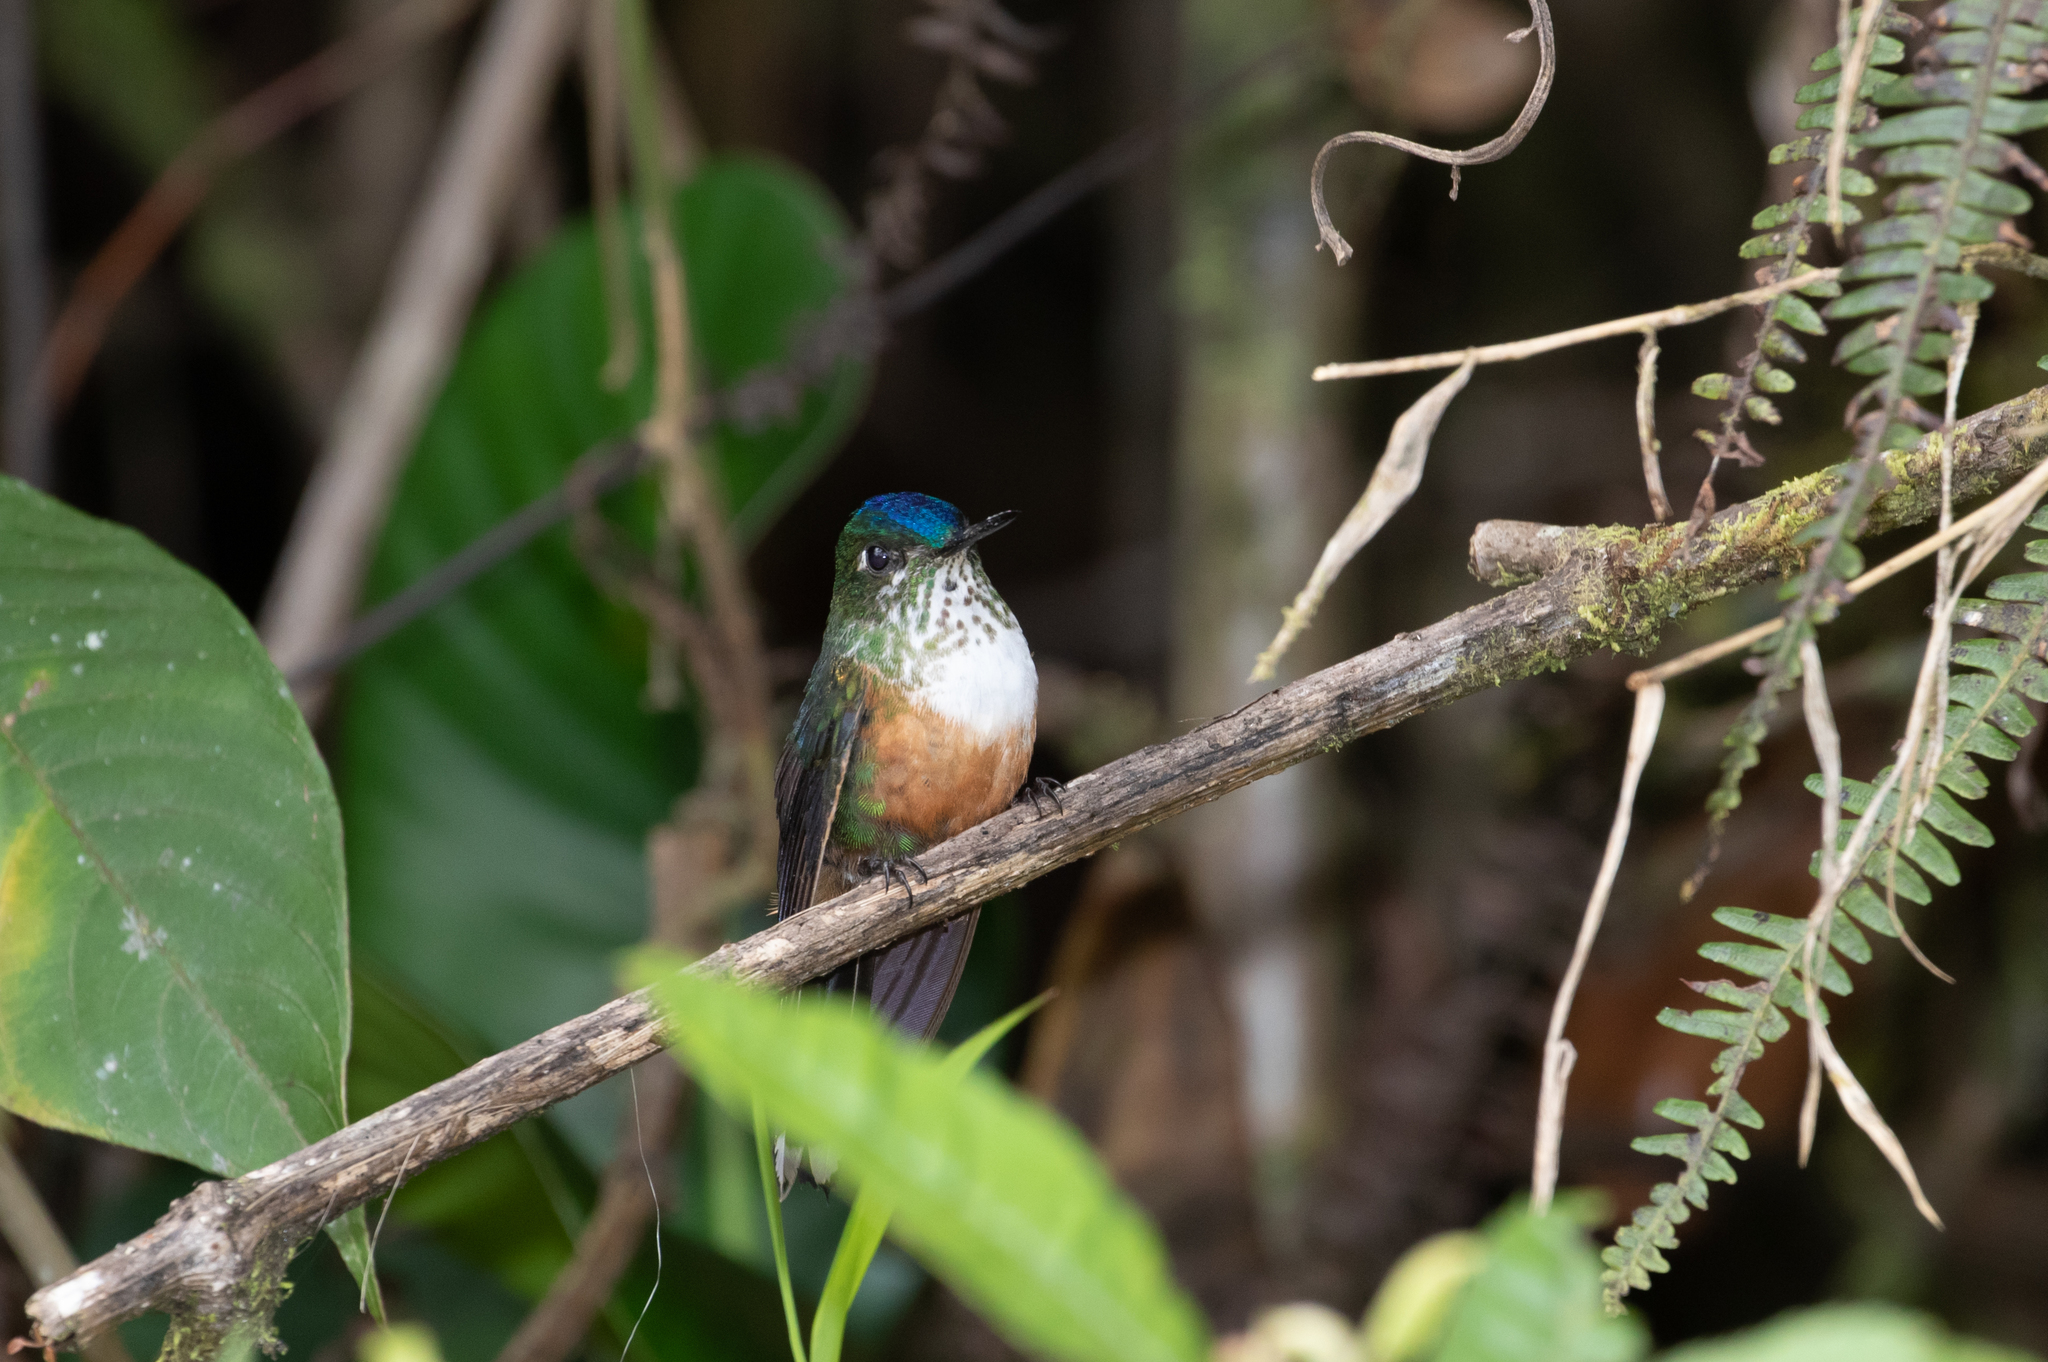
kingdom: Animalia
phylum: Chordata
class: Aves
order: Apodiformes
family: Trochilidae
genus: Aglaiocercus
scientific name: Aglaiocercus coelestis
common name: Violet-tailed sylph
